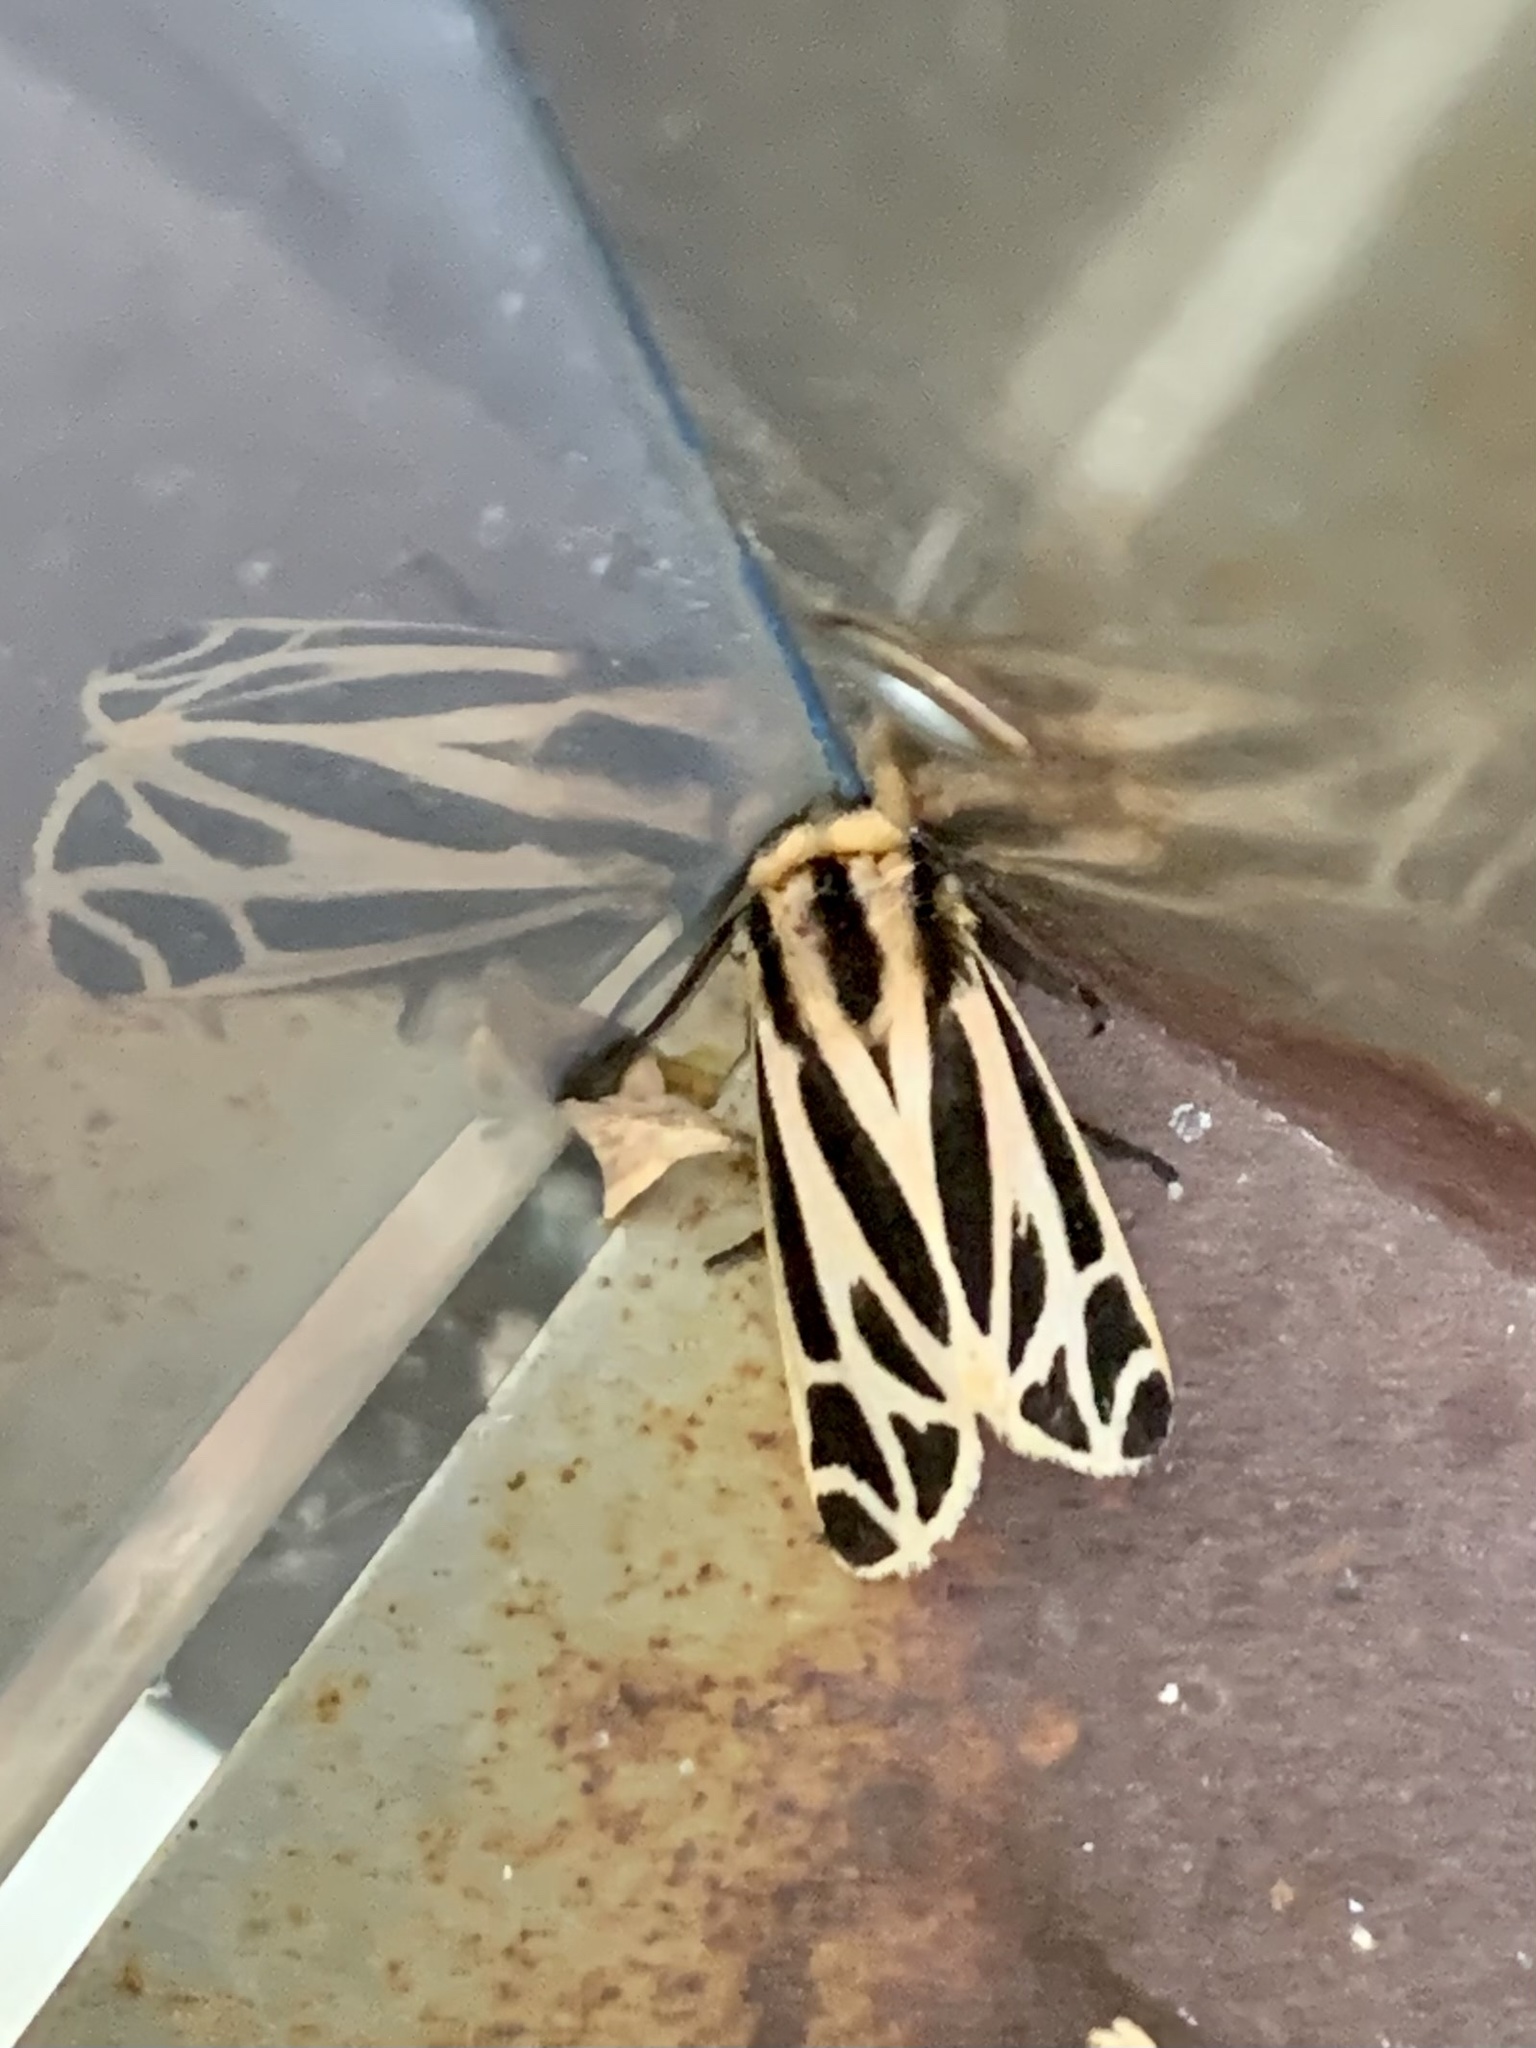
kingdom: Animalia
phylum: Arthropoda
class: Insecta
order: Lepidoptera
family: Erebidae
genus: Apantesis
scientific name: Apantesis phalerata
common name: Harnessed tiger moth
